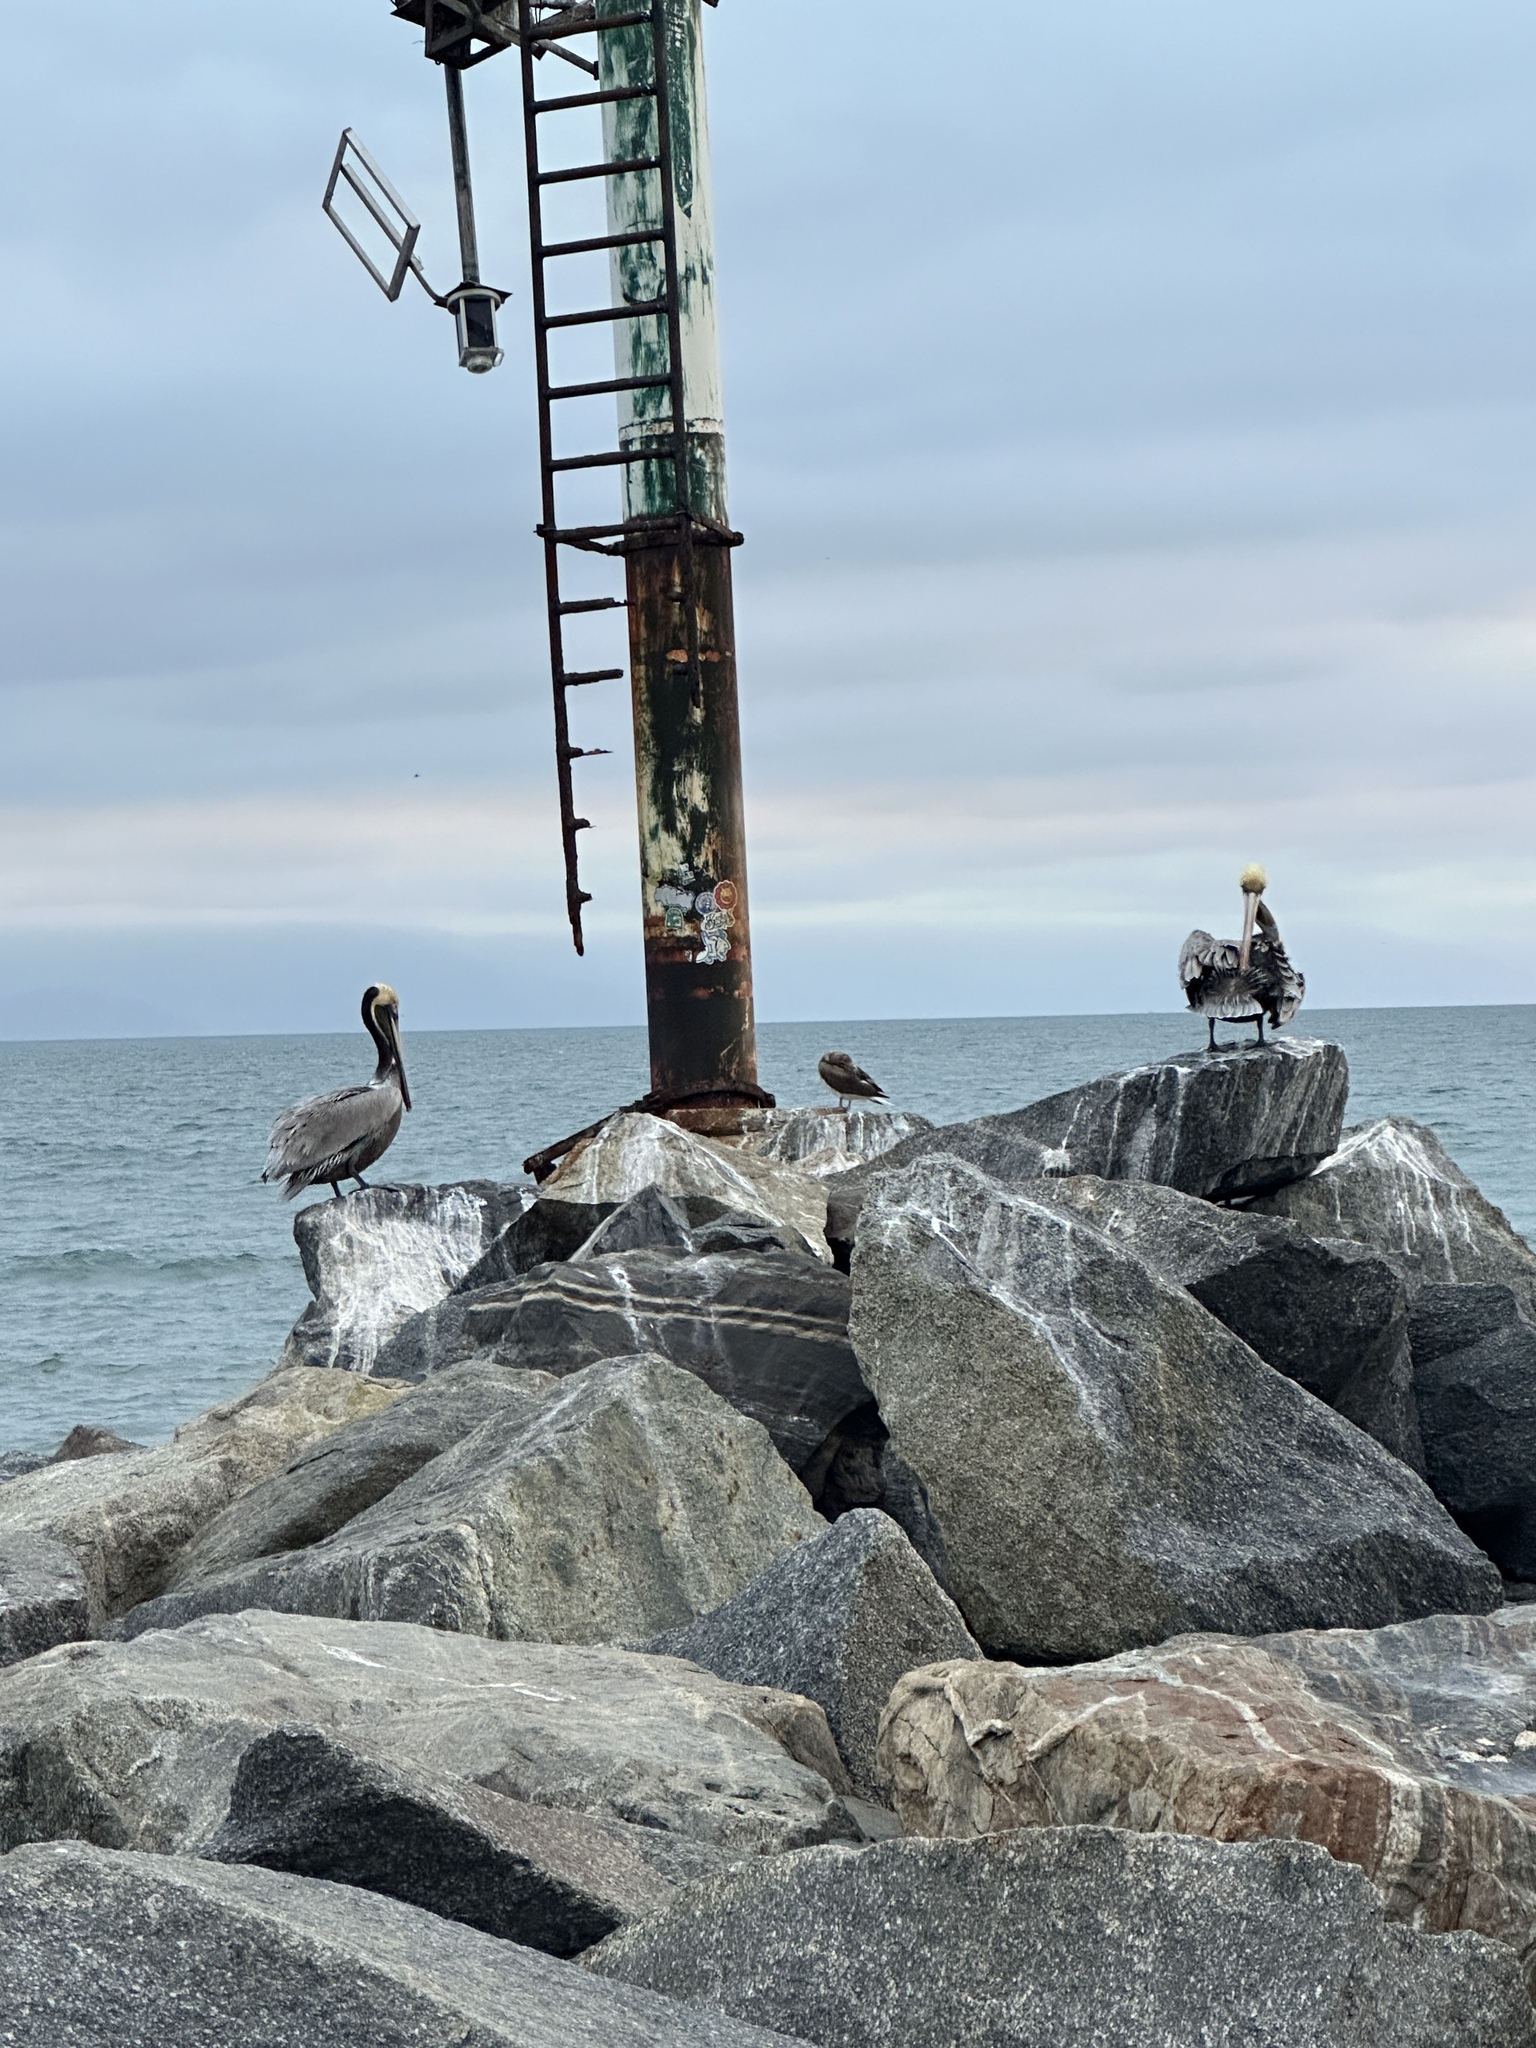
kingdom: Animalia
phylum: Chordata
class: Aves
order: Pelecaniformes
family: Pelecanidae
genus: Pelecanus
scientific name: Pelecanus occidentalis
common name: Brown pelican
